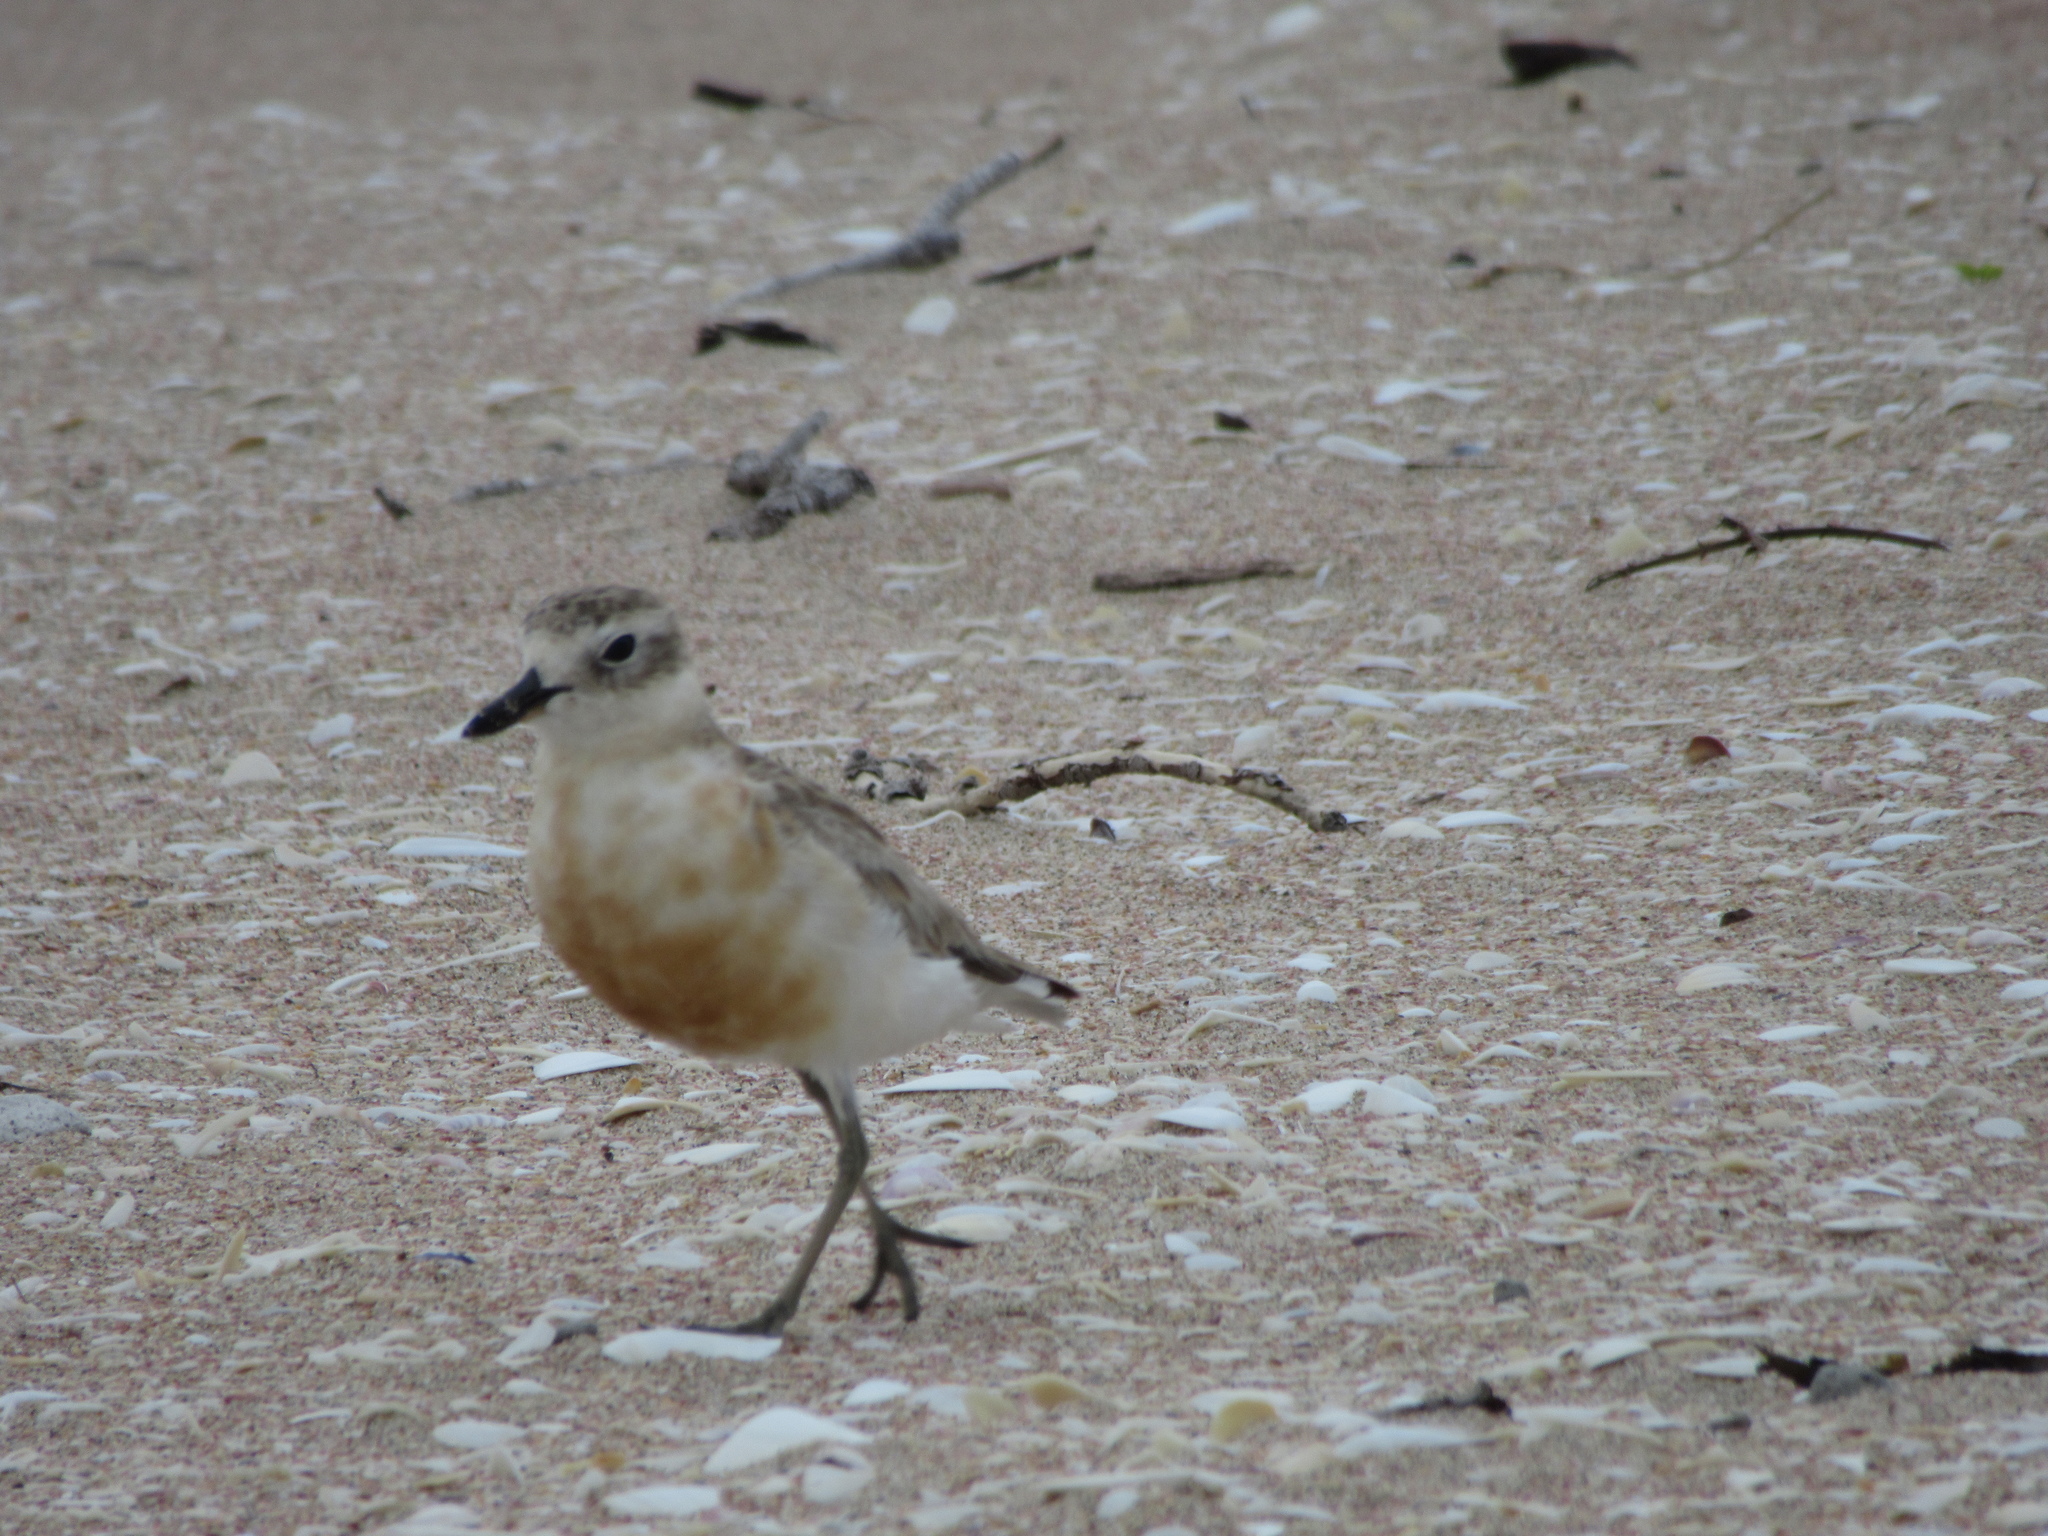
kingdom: Animalia
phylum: Chordata
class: Aves
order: Charadriiformes
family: Charadriidae
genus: Anarhynchus
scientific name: Anarhynchus
